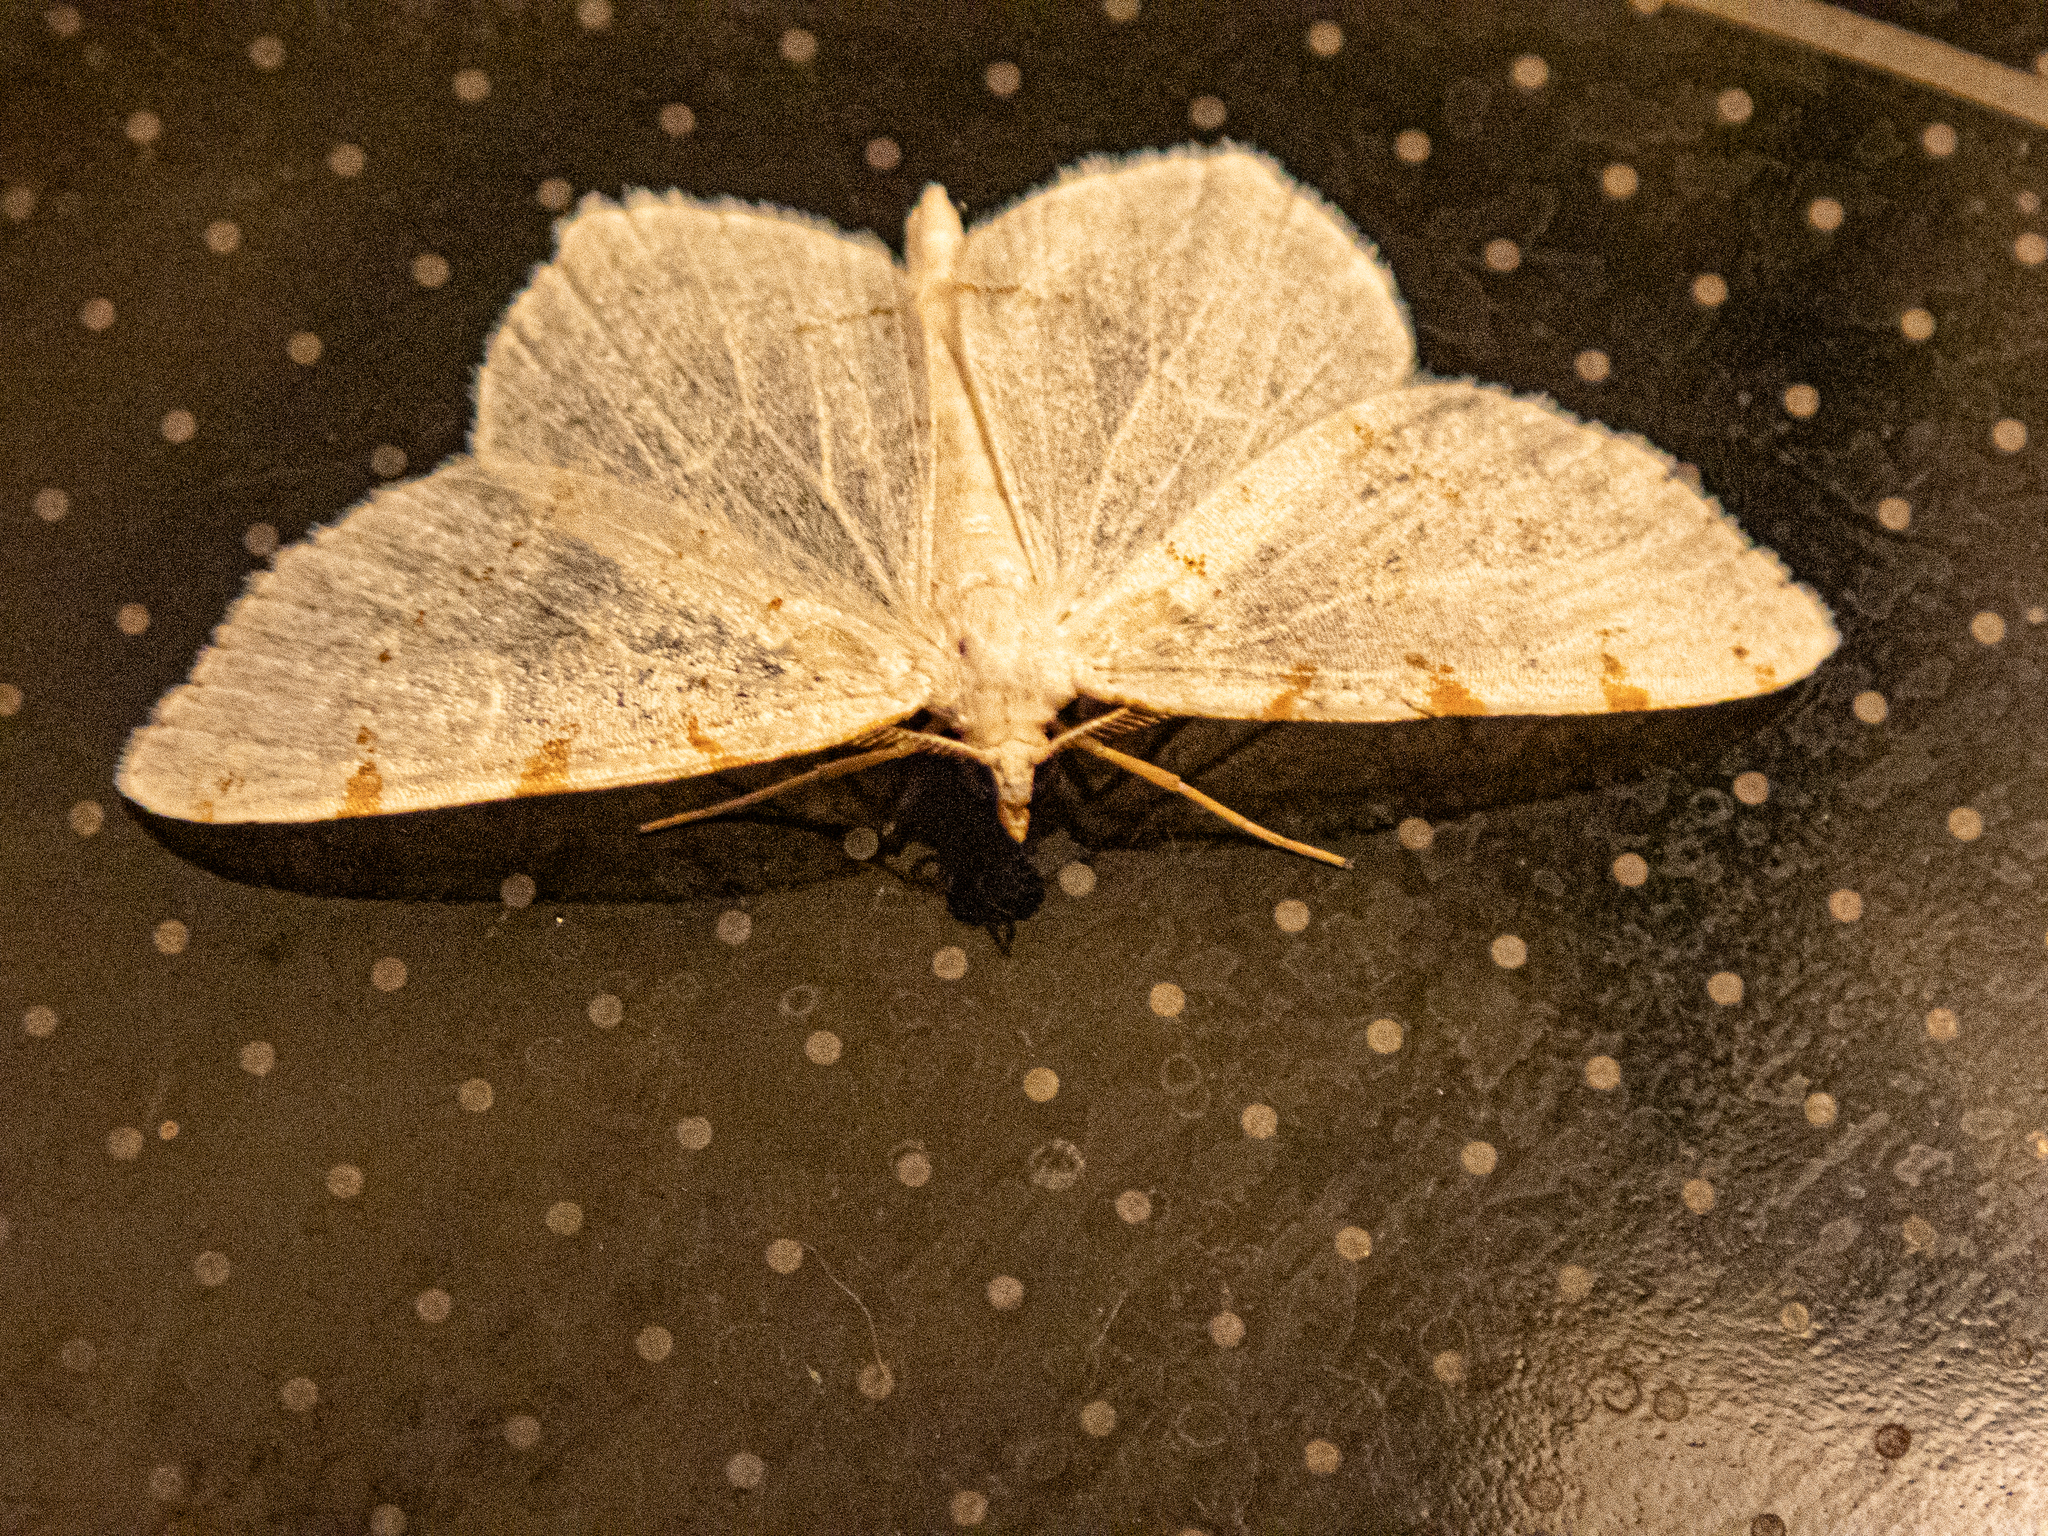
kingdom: Animalia
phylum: Arthropoda
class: Insecta
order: Lepidoptera
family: Geometridae
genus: Macaria
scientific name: Macaria pustularia
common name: Lesser maple spanworm moth
